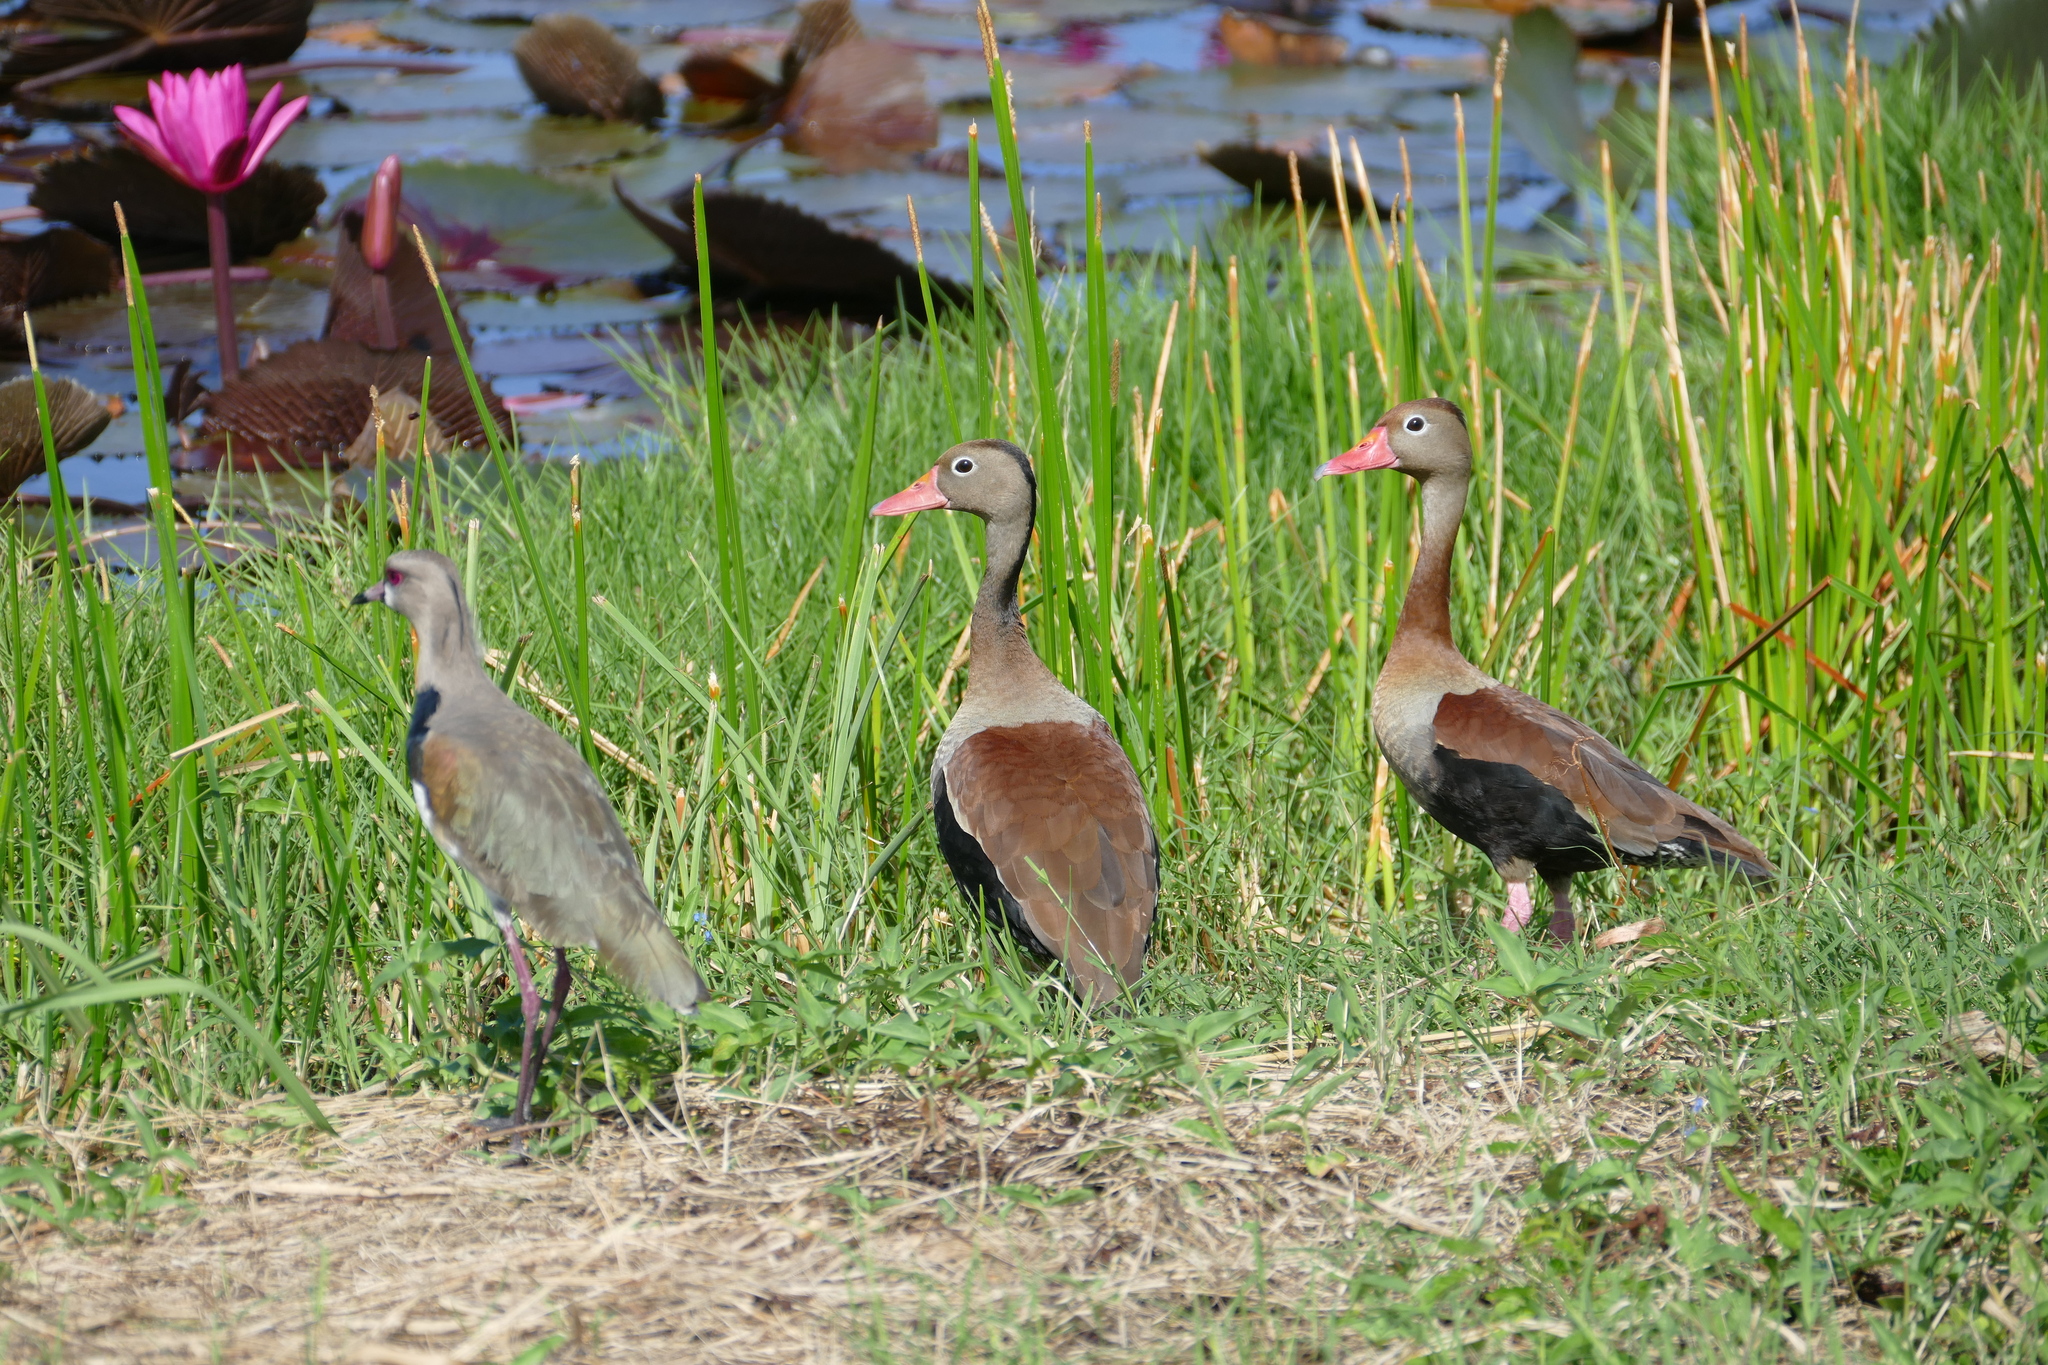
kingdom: Animalia
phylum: Chordata
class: Aves
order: Anseriformes
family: Anatidae
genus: Dendrocygna
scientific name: Dendrocygna autumnalis
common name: Black-bellied whistling duck
